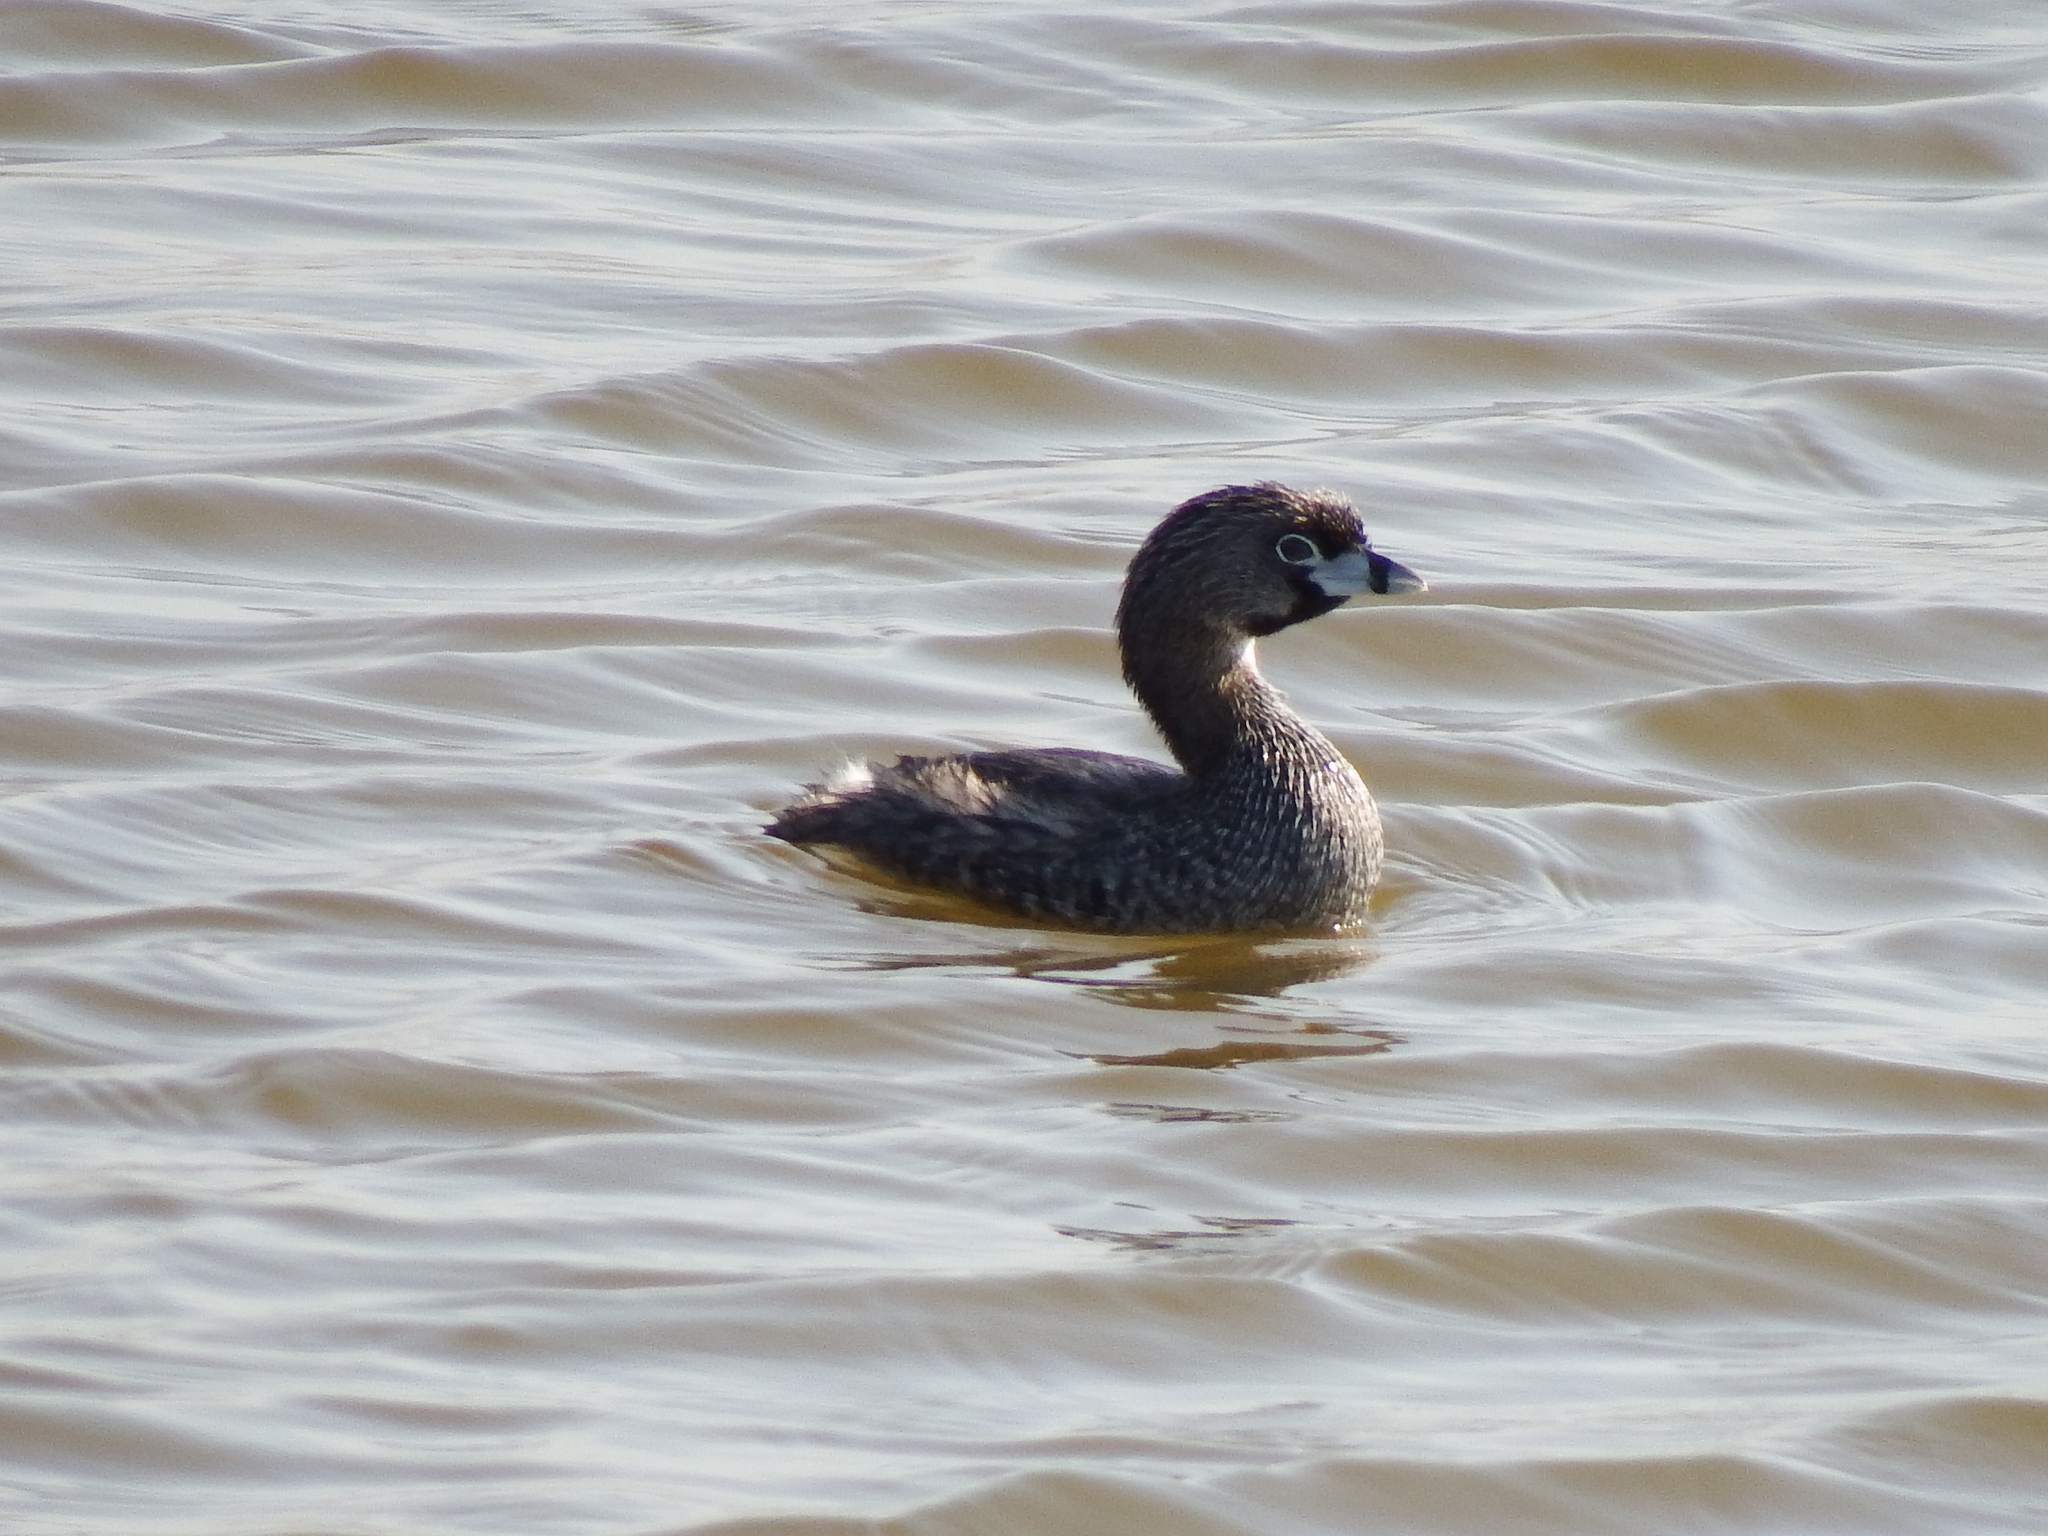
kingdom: Animalia
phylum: Chordata
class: Aves
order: Podicipediformes
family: Podicipedidae
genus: Podilymbus
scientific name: Podilymbus podiceps
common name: Pied-billed grebe
